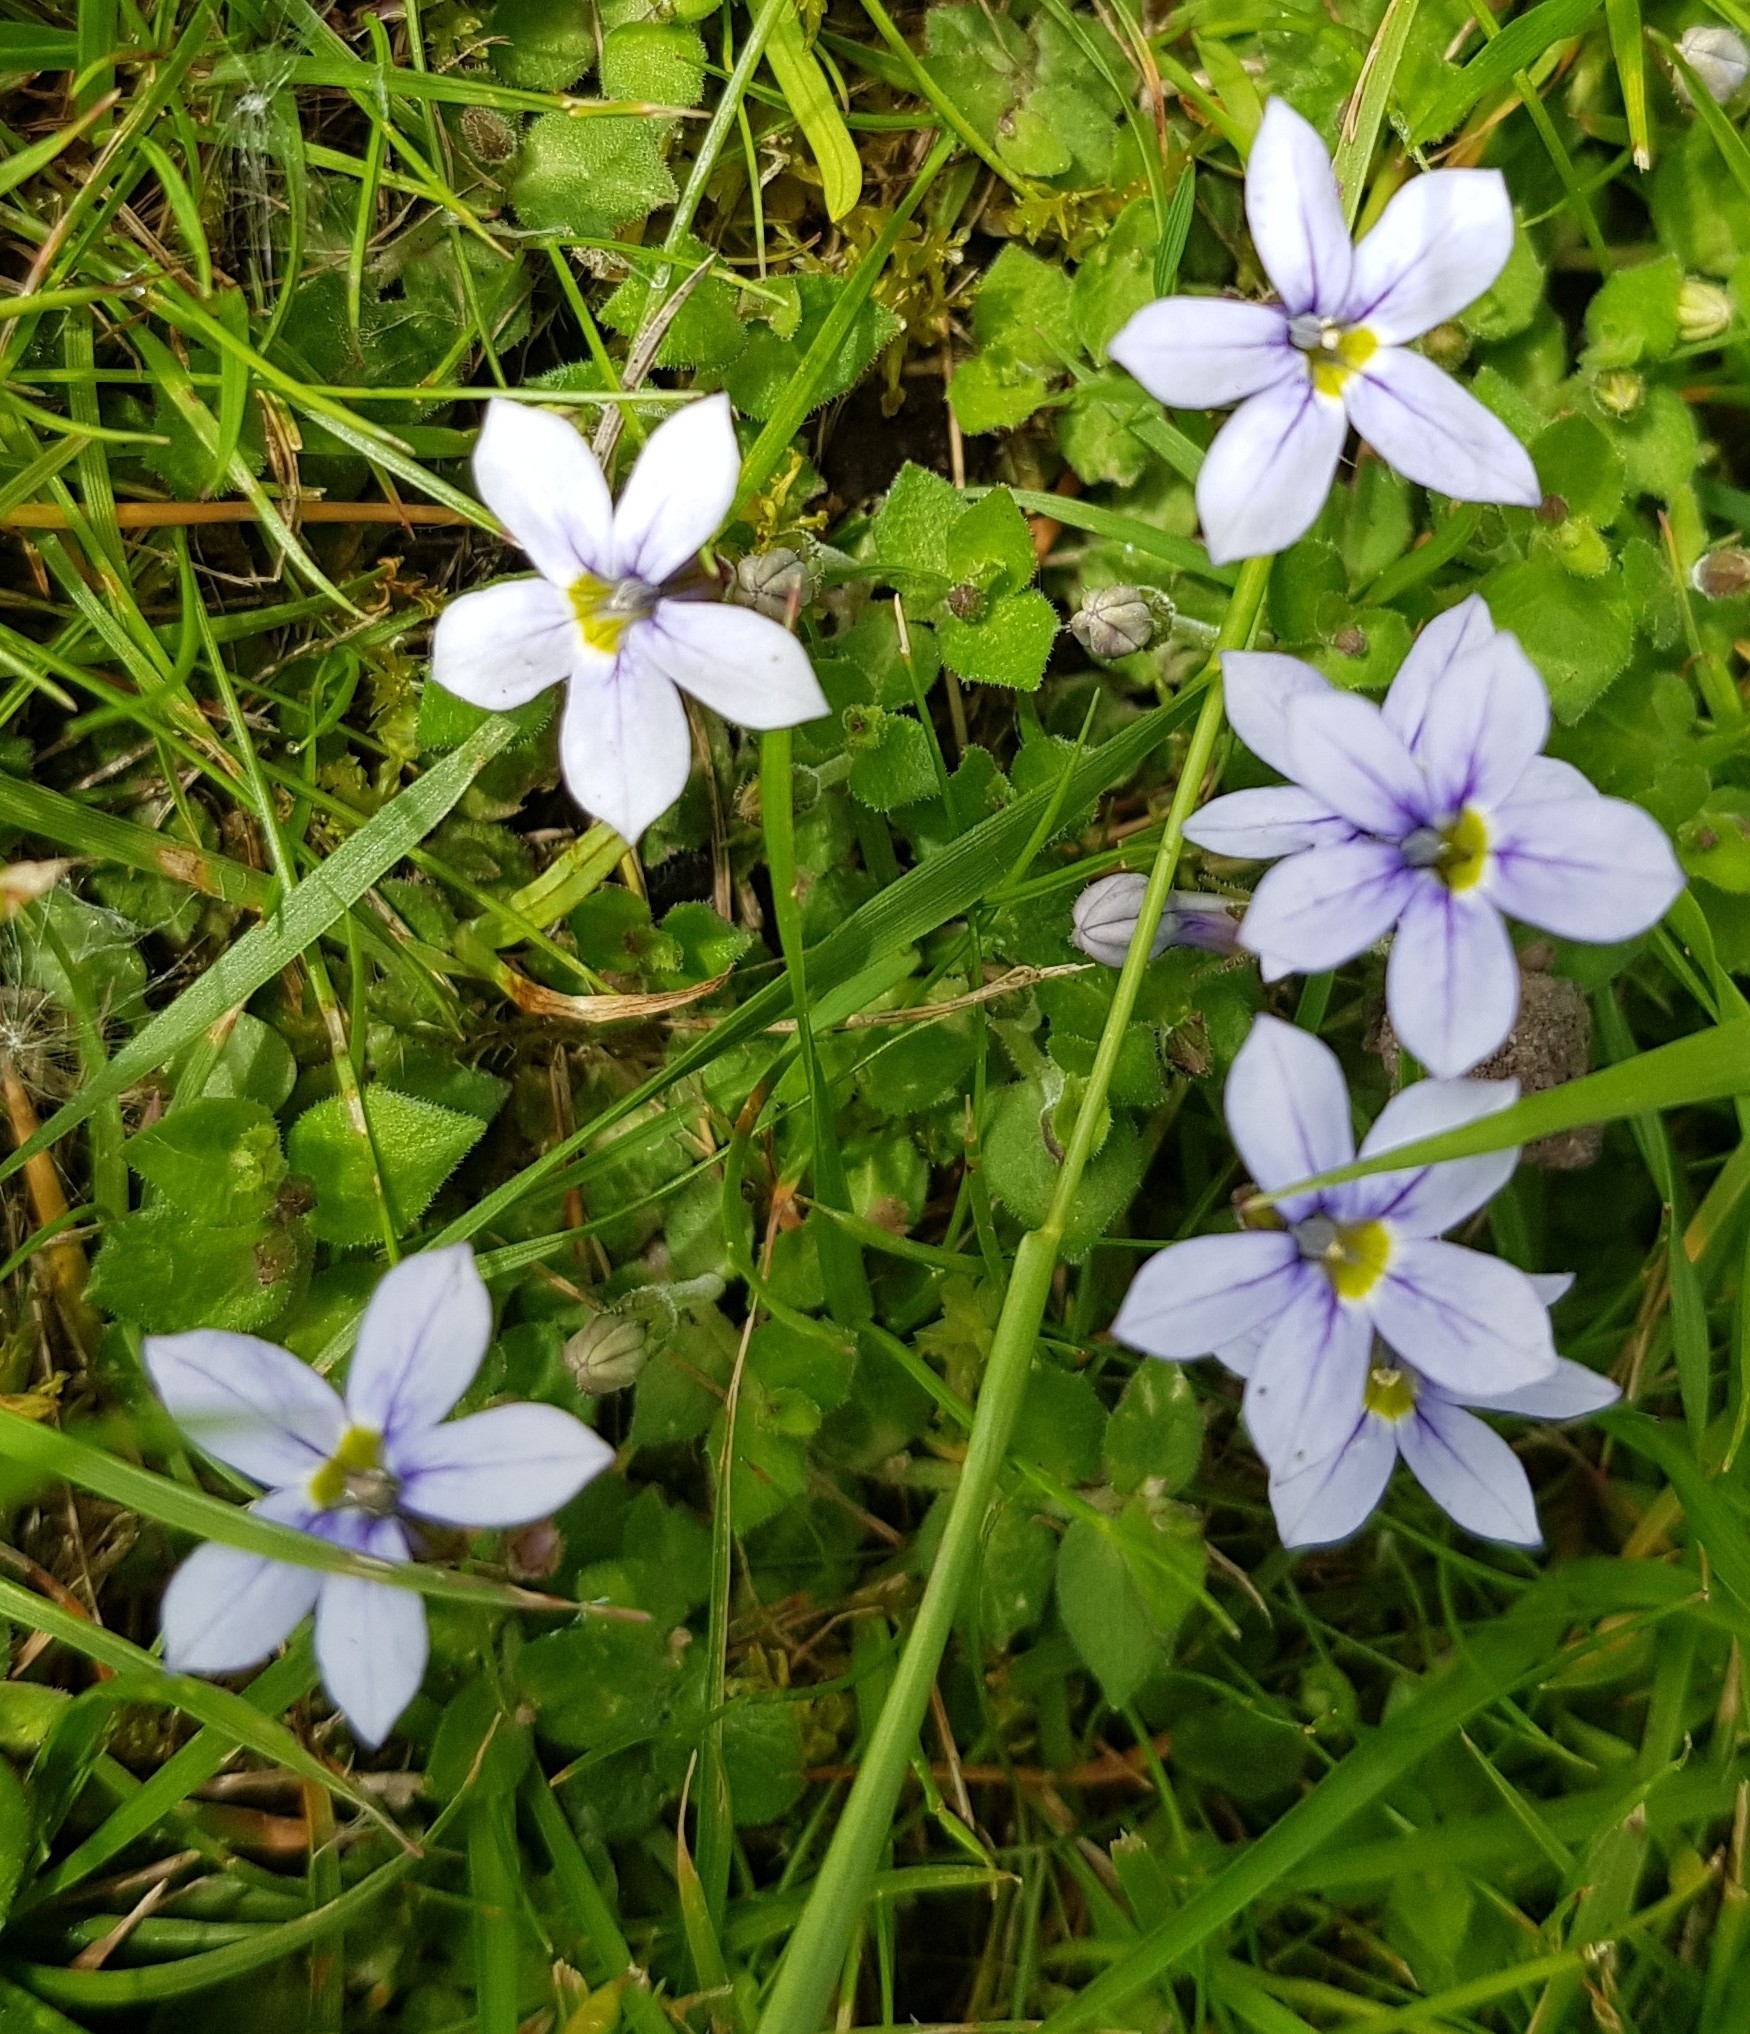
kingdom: Plantae
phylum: Tracheophyta
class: Magnoliopsida
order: Asterales
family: Campanulaceae
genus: Lobelia
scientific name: Lobelia pedunculata
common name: Matted pratia
